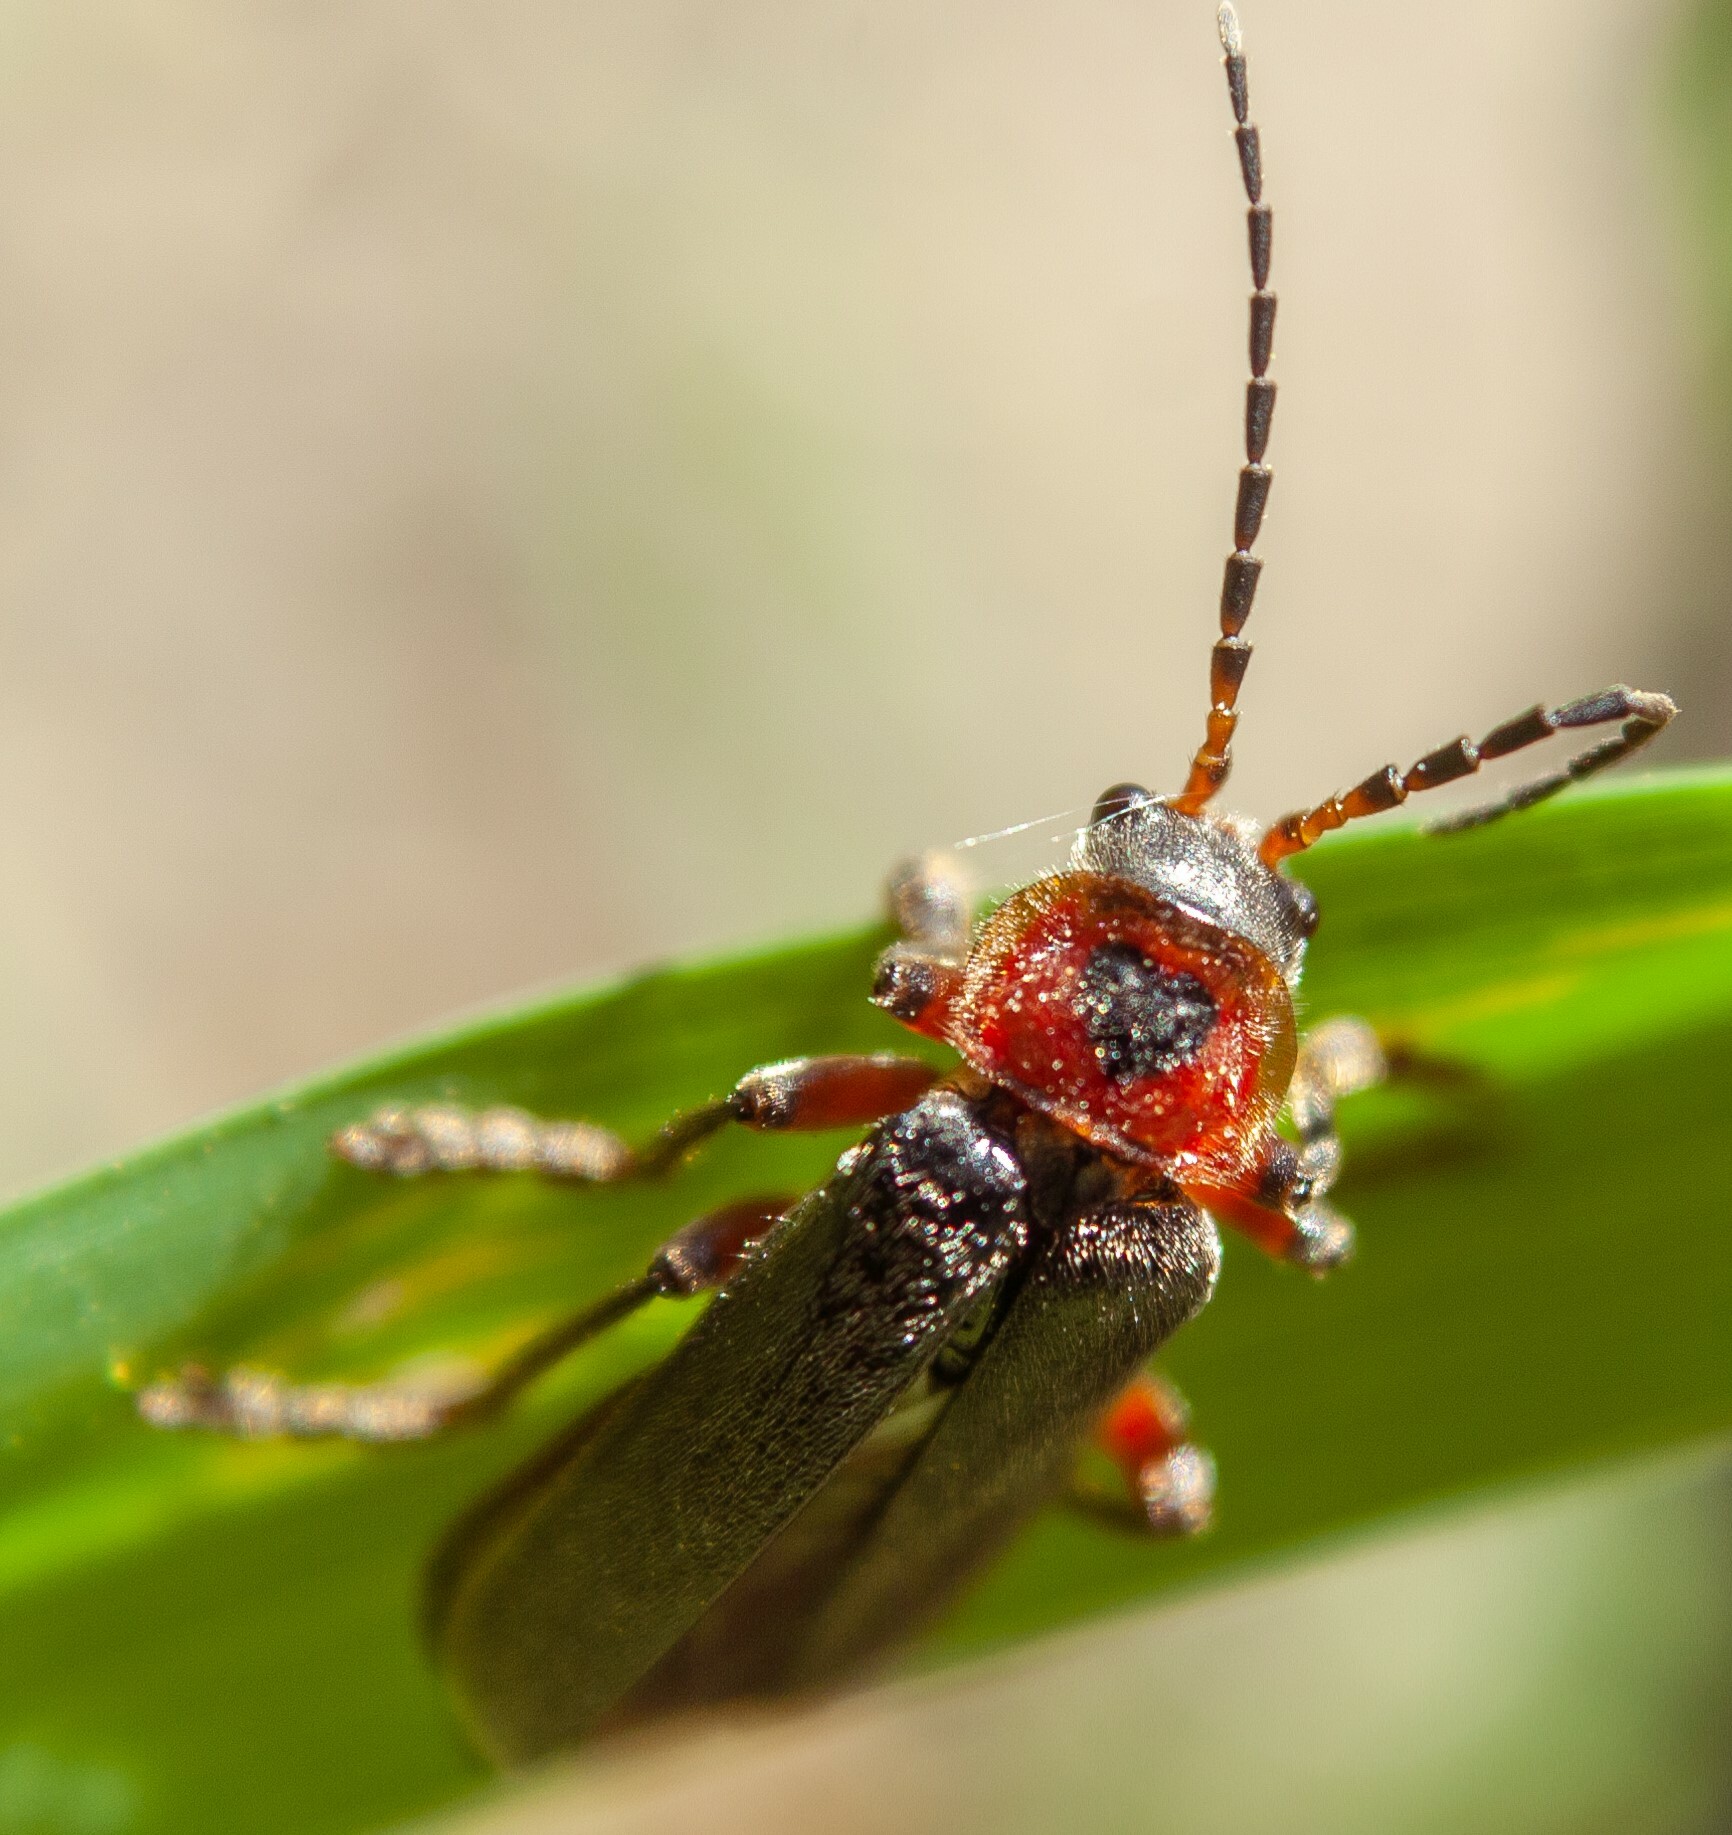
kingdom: Animalia
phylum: Arthropoda
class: Insecta
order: Coleoptera
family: Cantharidae
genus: Cantharis
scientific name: Cantharis rustica
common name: Soldier beetle
